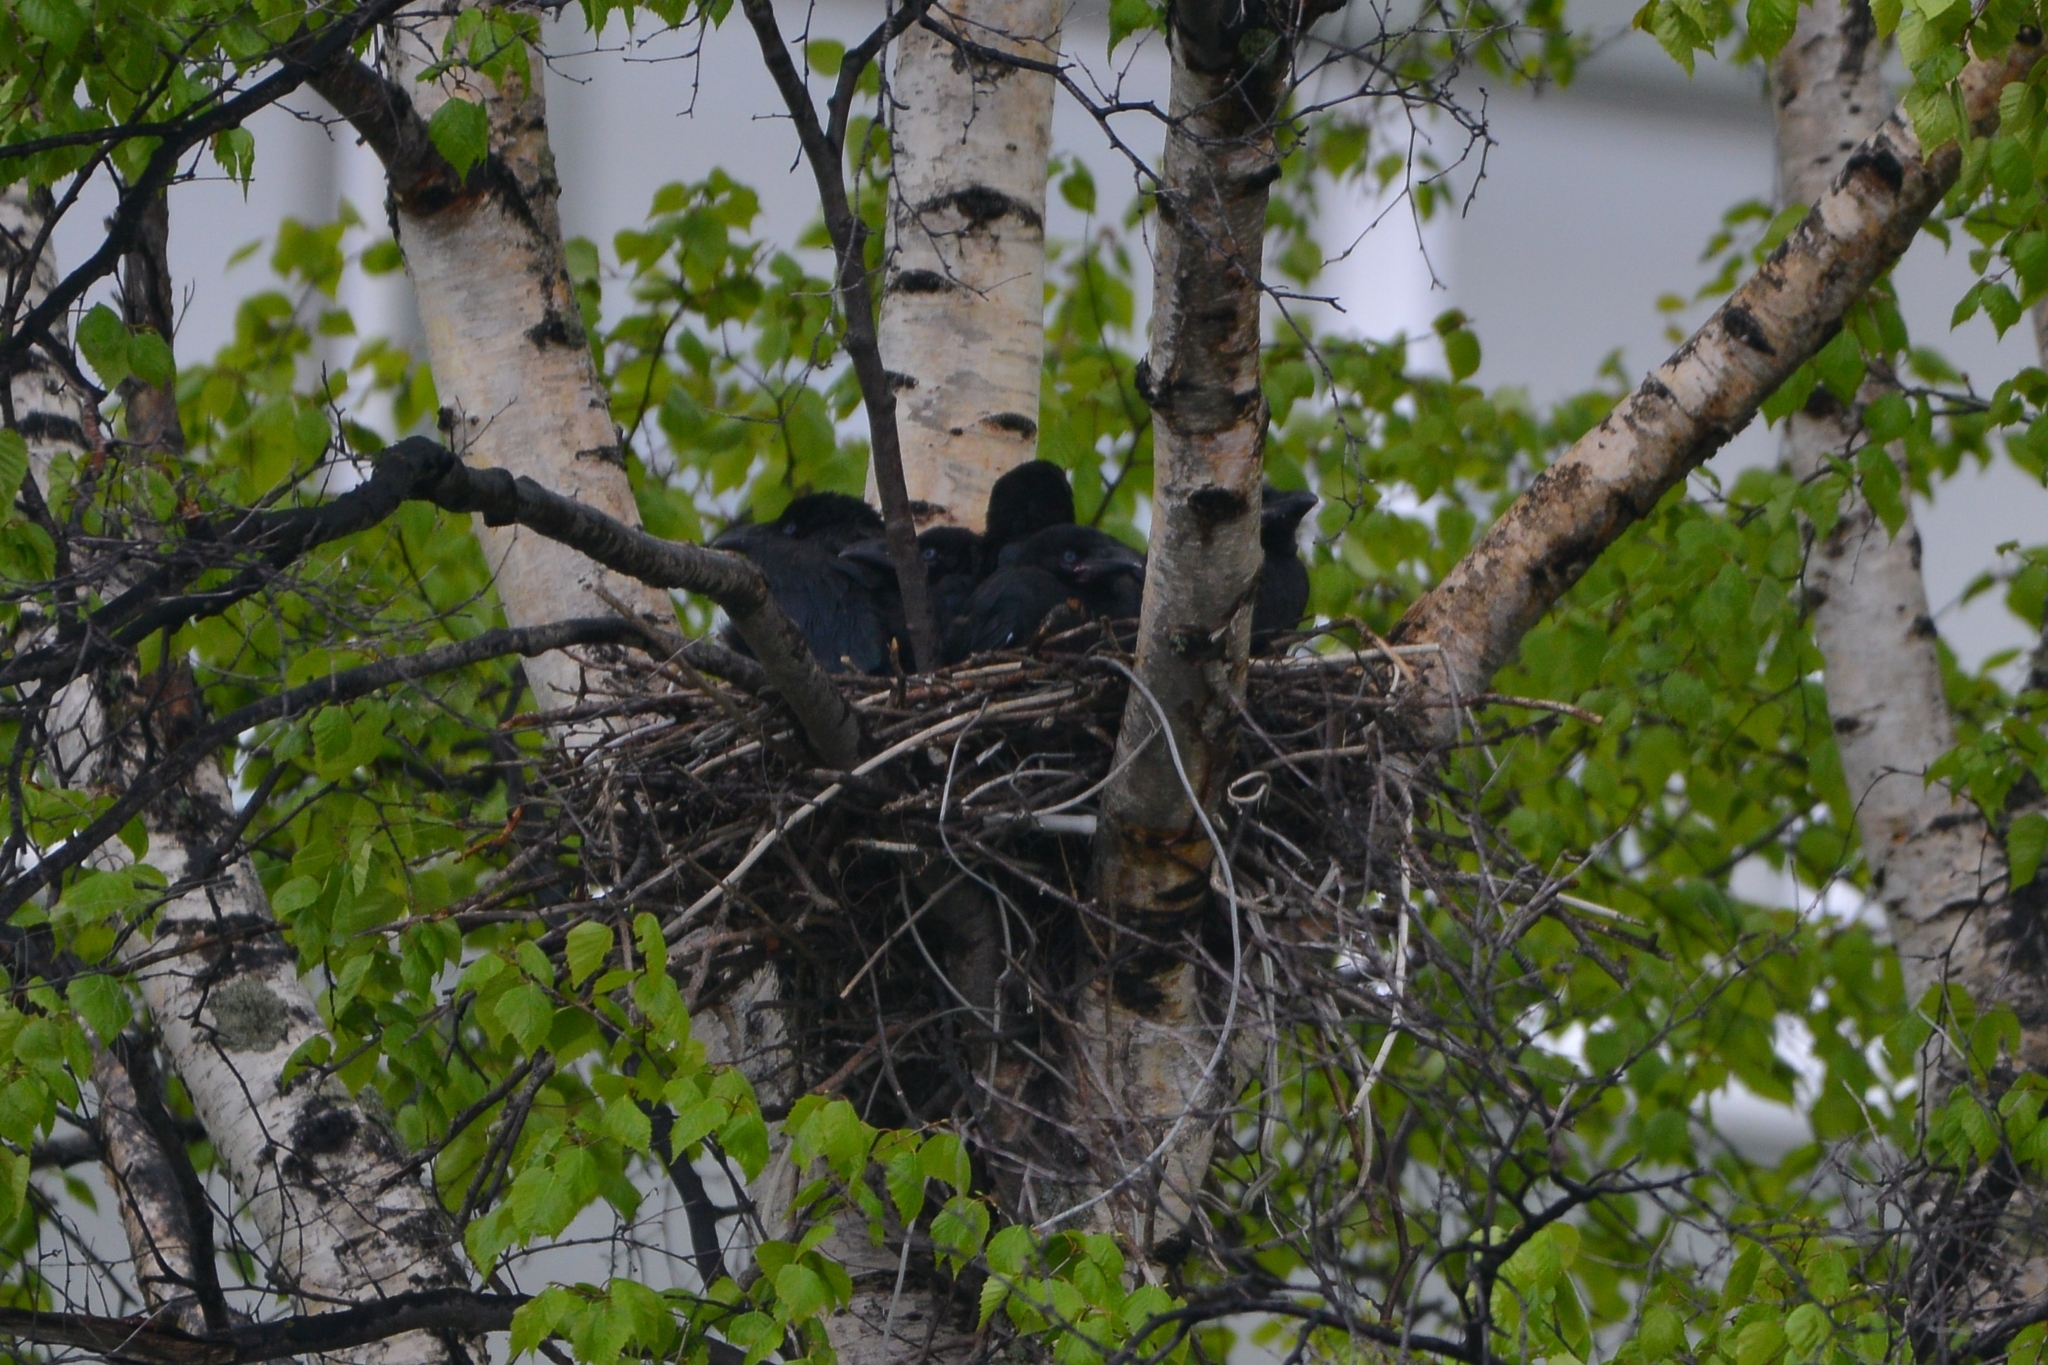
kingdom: Animalia
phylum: Chordata
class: Aves
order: Passeriformes
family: Corvidae
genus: Corvus
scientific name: Corvus macrorhynchos
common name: Large-billed crow
